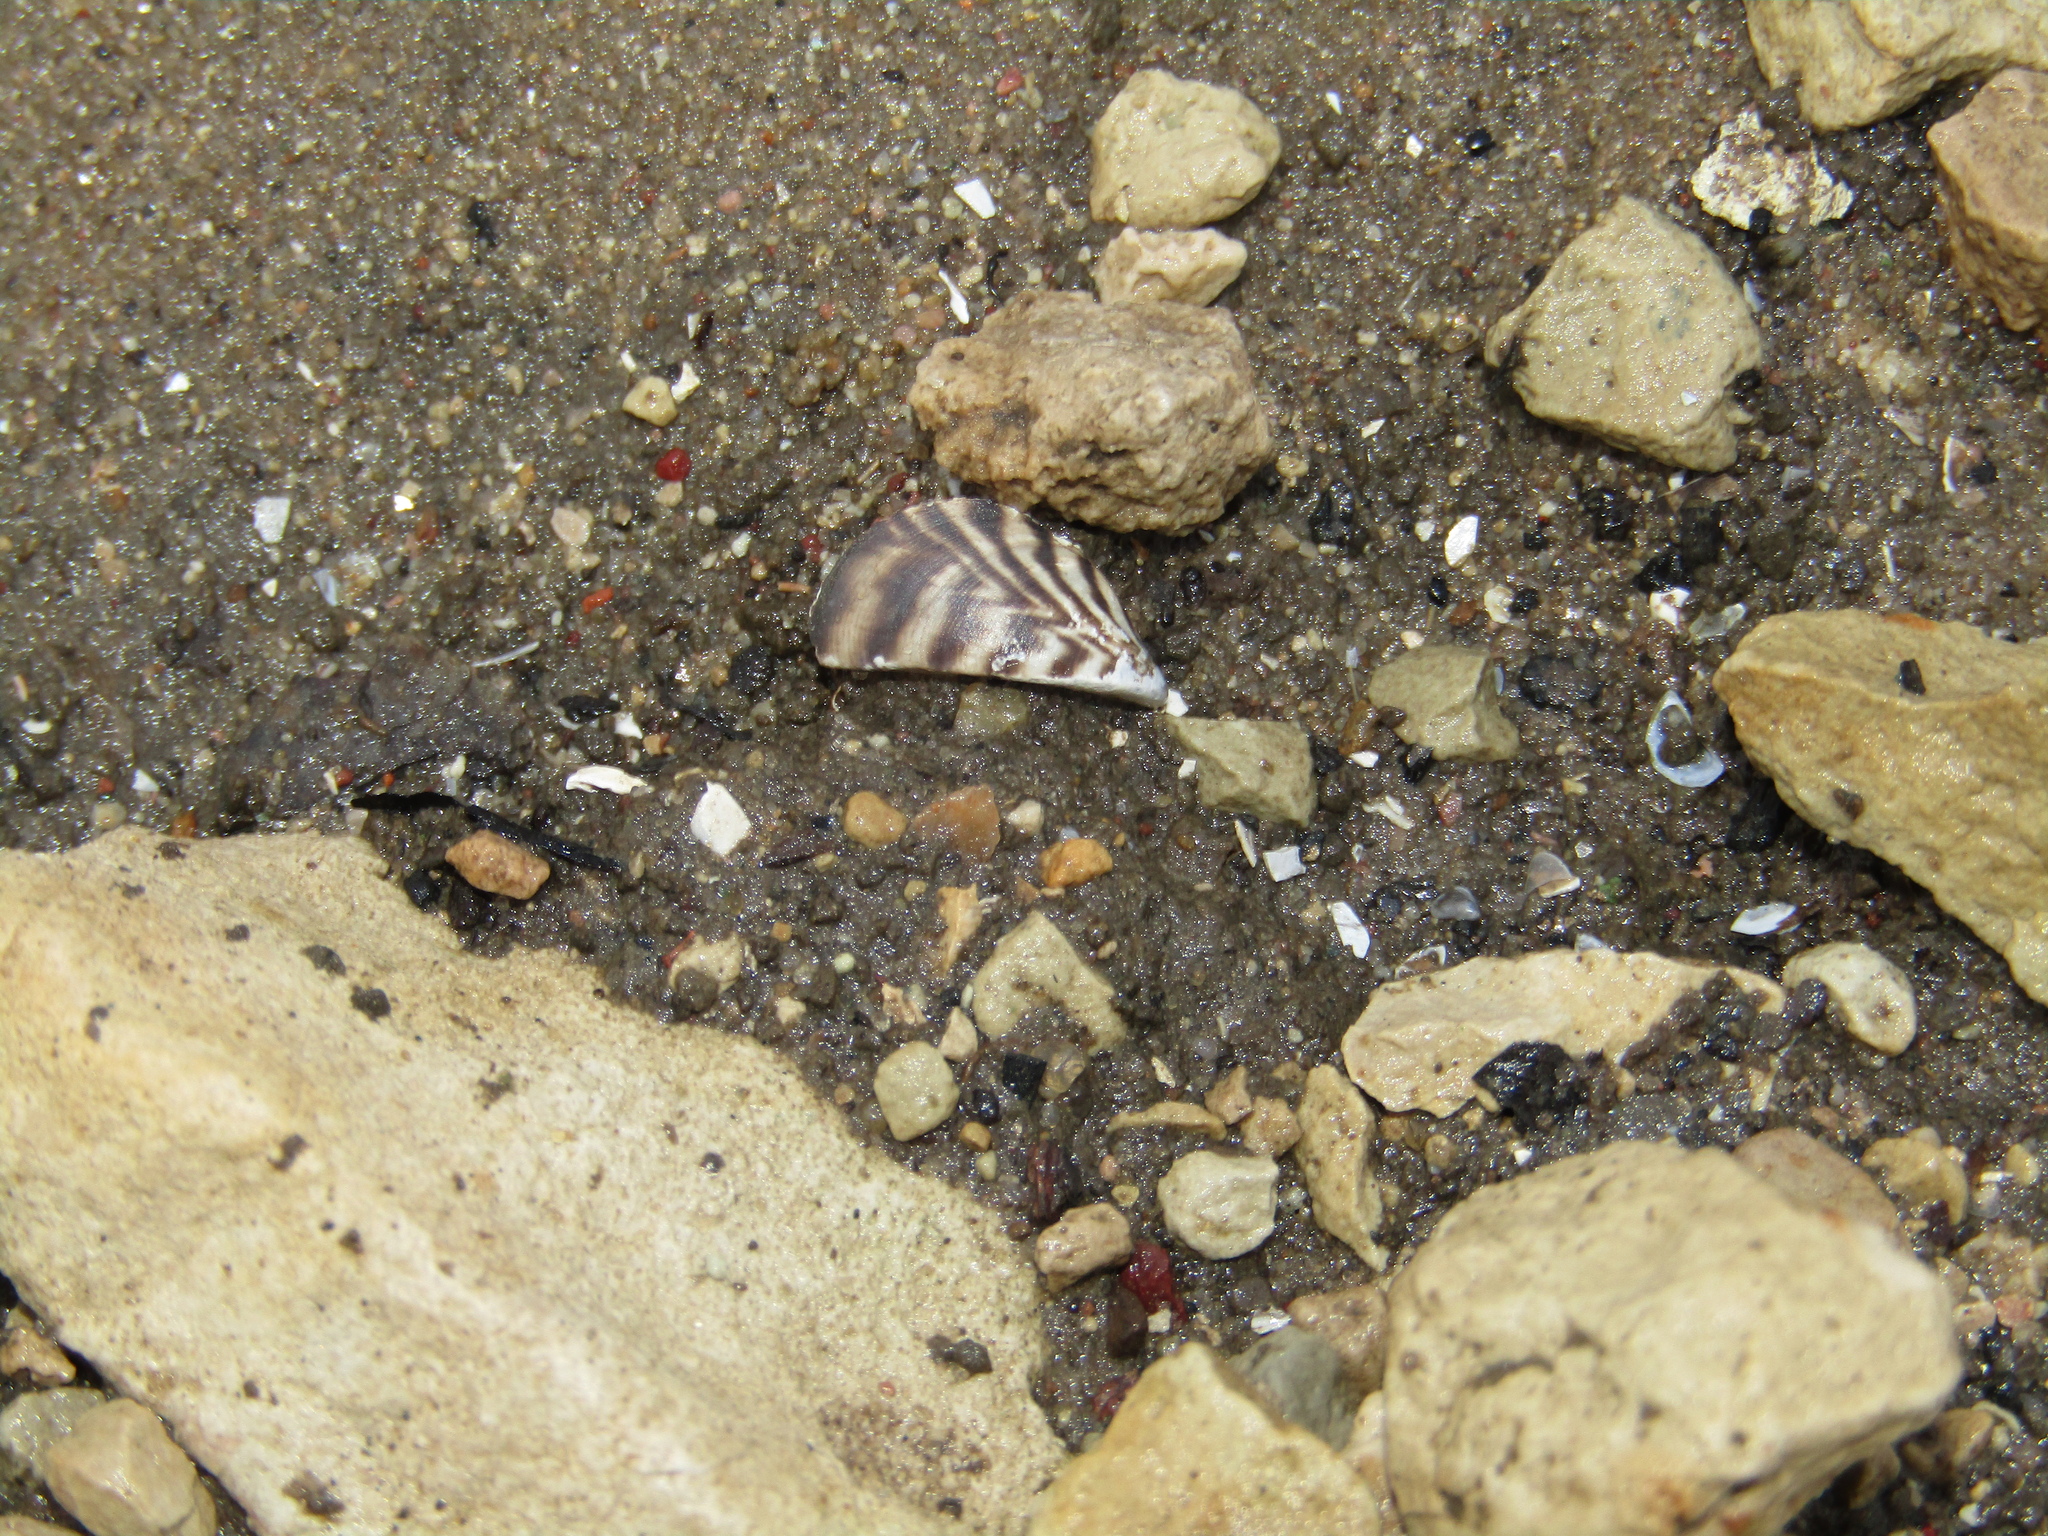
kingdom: Animalia
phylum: Mollusca
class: Bivalvia
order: Myida
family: Dreissenidae
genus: Dreissena
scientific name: Dreissena polymorpha
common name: Zebra mussel
